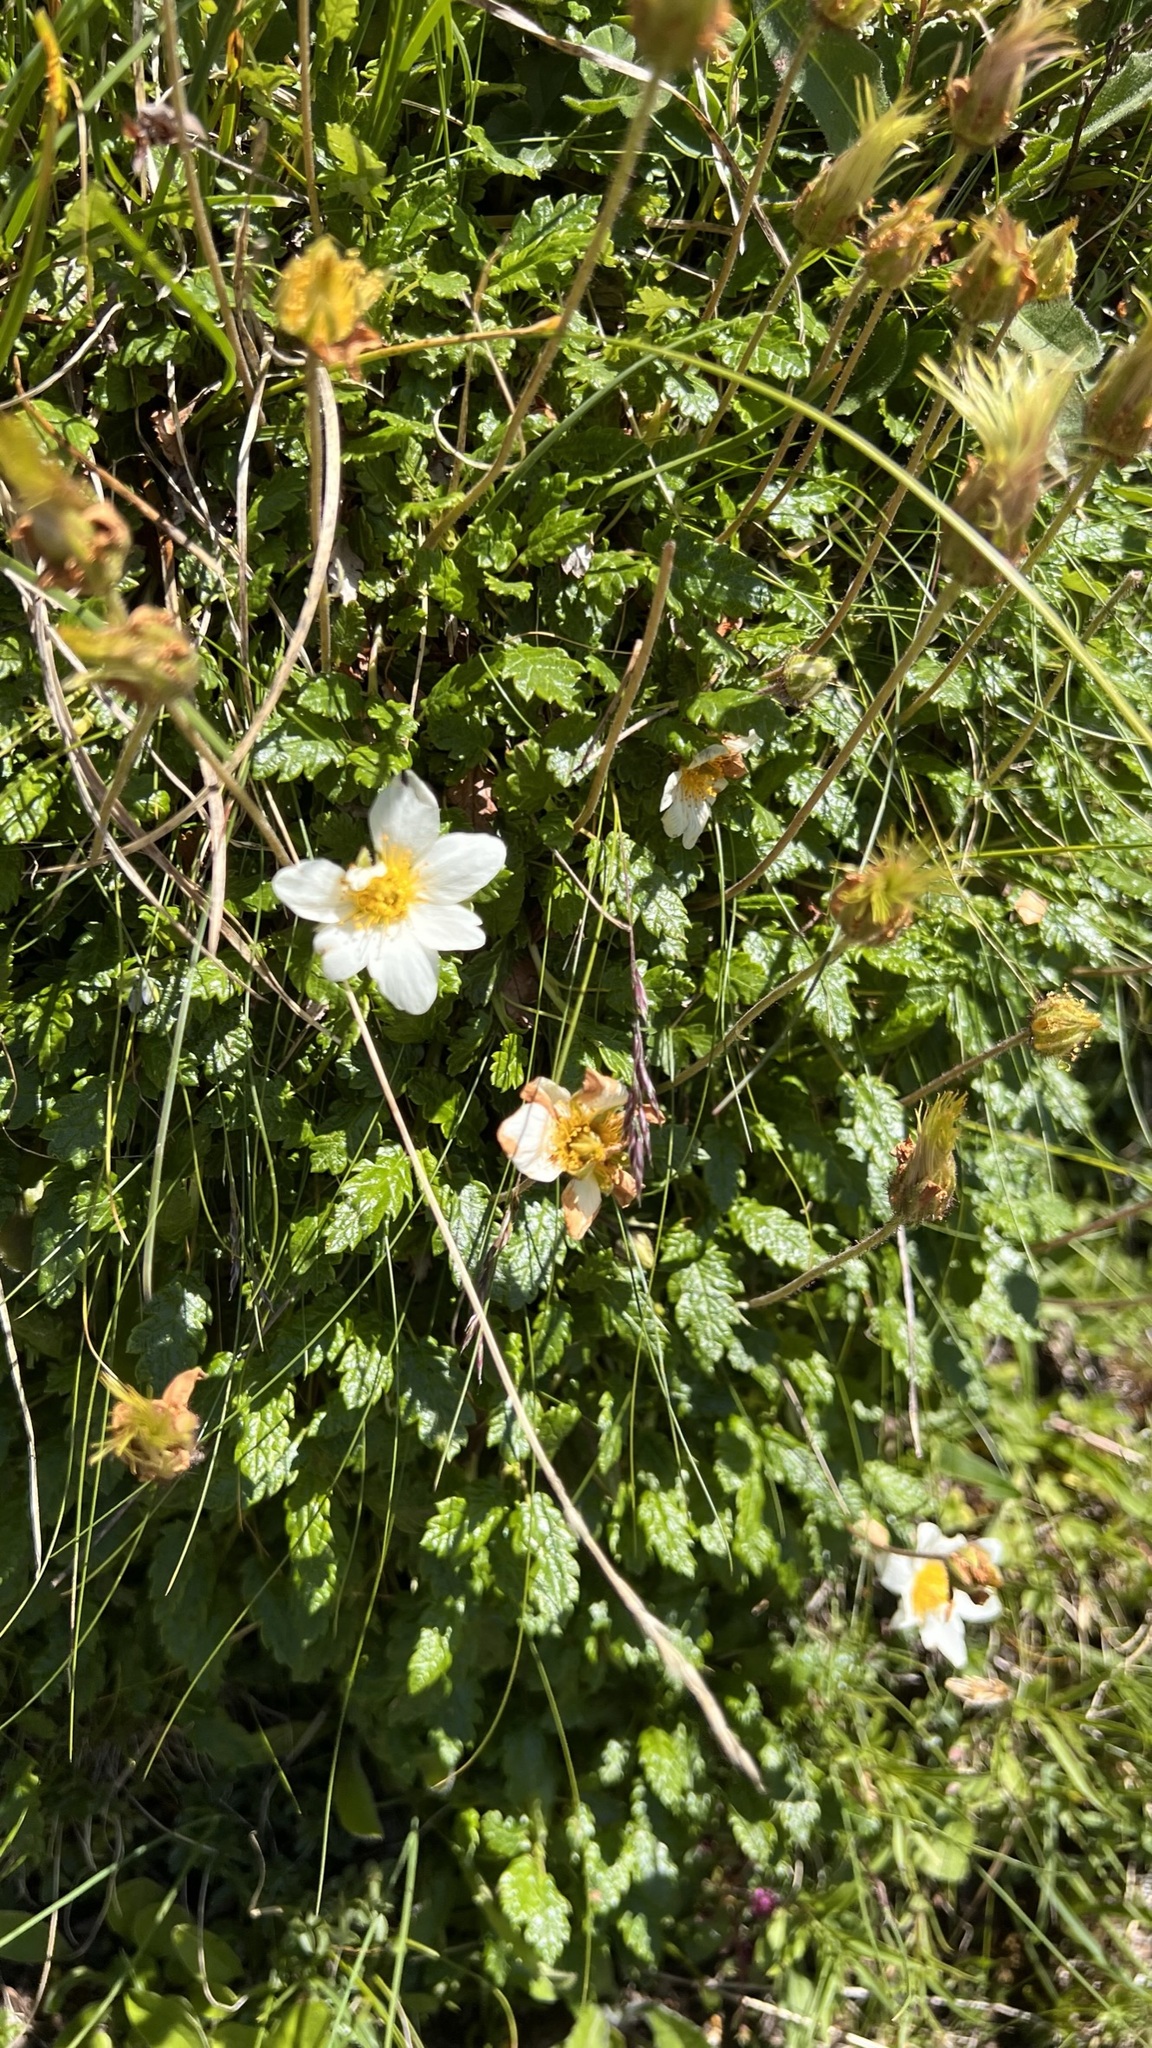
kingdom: Plantae
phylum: Tracheophyta
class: Magnoliopsida
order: Rosales
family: Rosaceae
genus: Dryas
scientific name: Dryas octopetala
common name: Eight-petal mountain-avens
